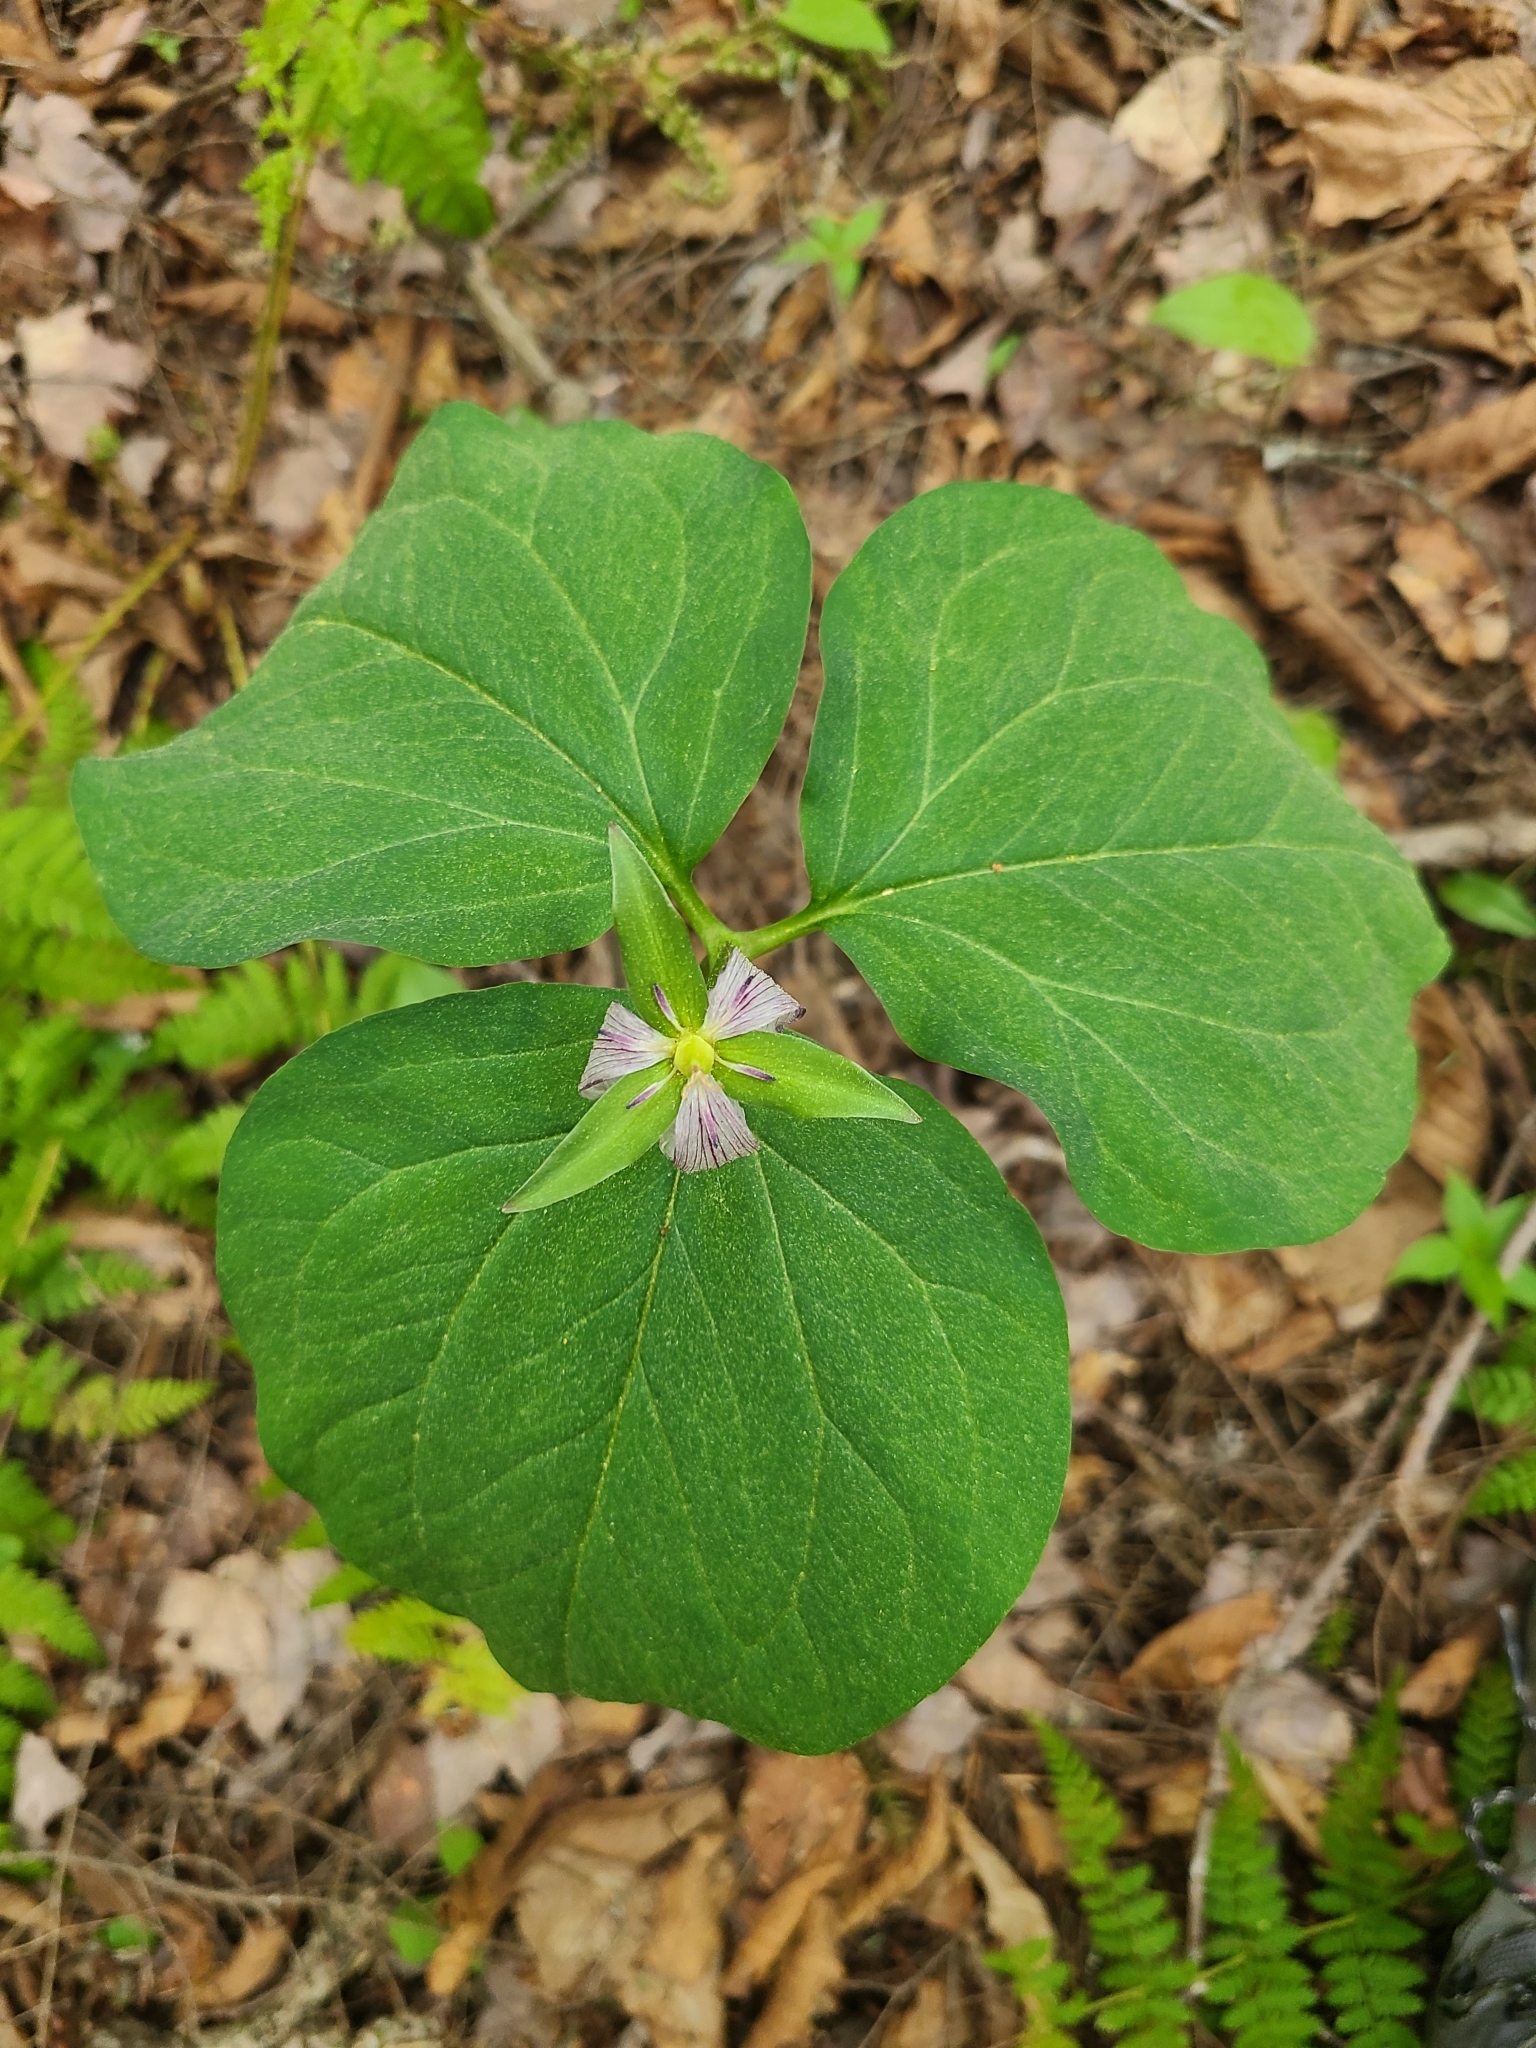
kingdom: Plantae
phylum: Tracheophyta
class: Liliopsida
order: Liliales
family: Melanthiaceae
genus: Trillium
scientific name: Trillium undulatum
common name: Paint trillium
